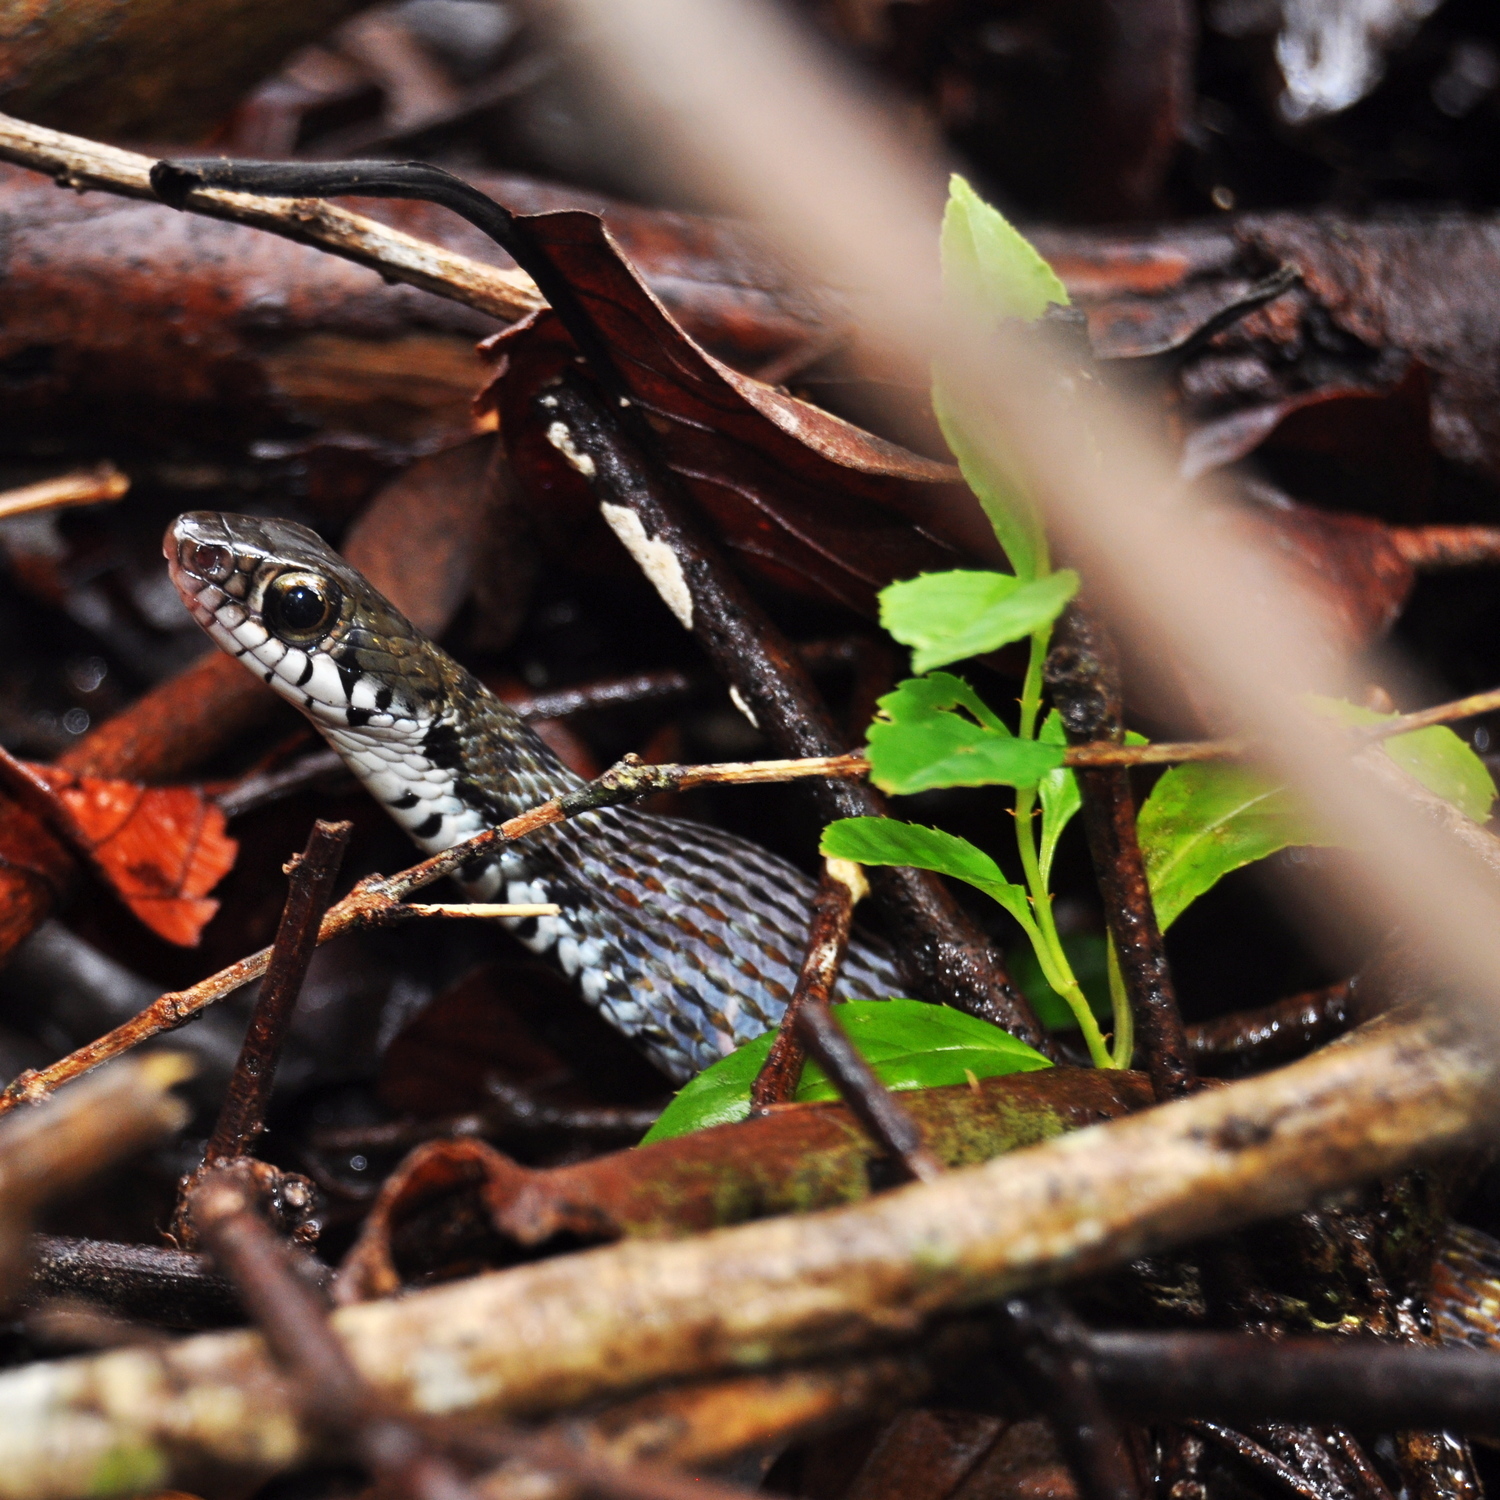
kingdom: Animalia
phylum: Chordata
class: Squamata
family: Colubridae
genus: Xenochrophis
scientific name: Xenochrophis maculatus
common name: Spotted keelback
